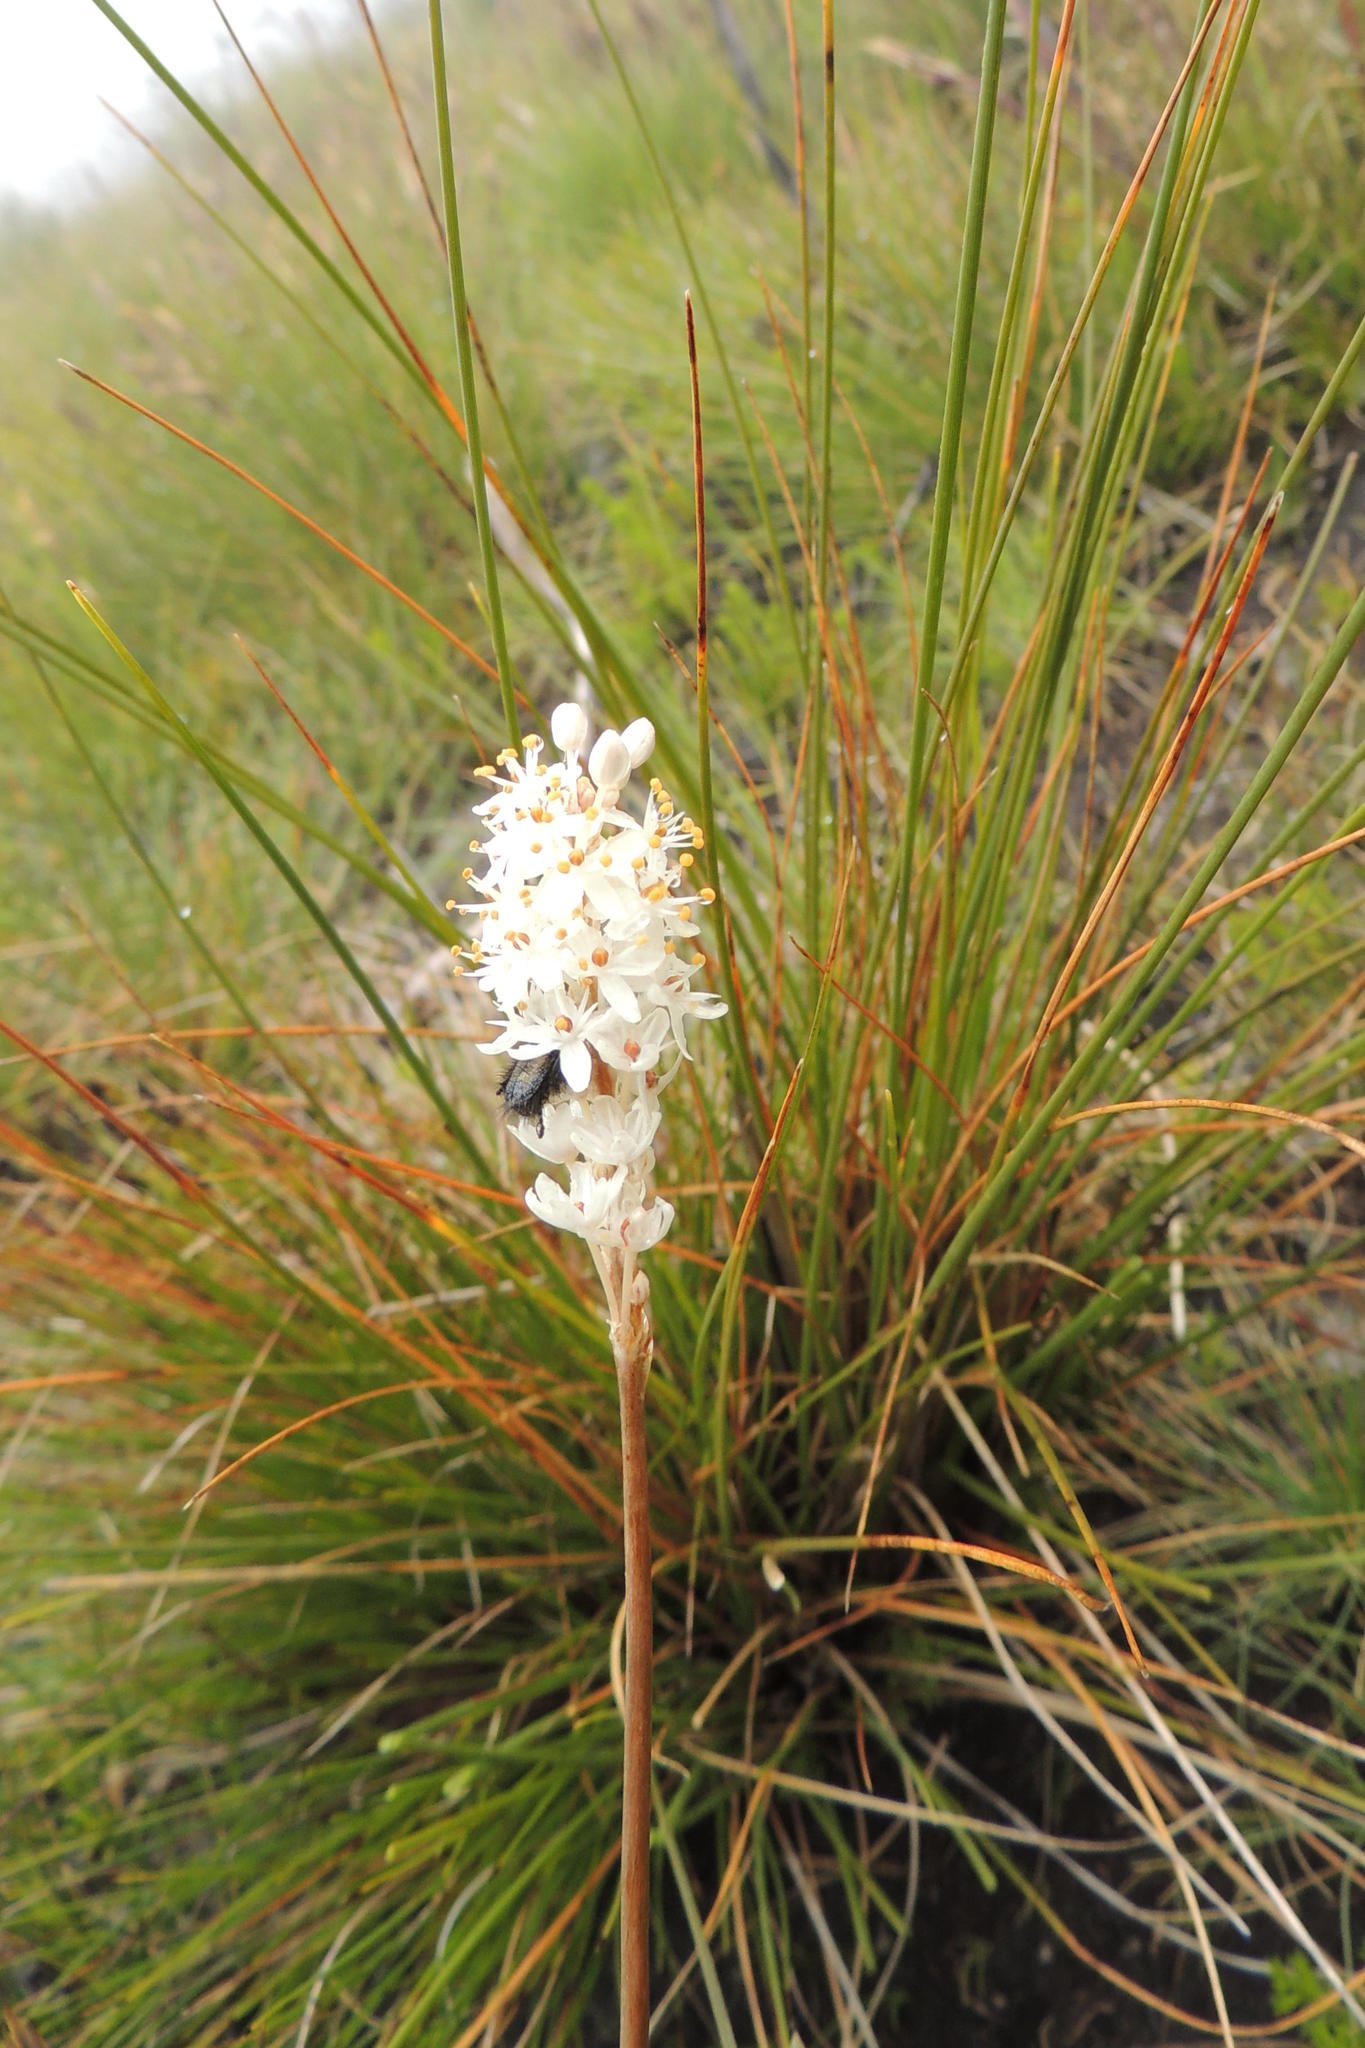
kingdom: Plantae
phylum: Tracheophyta
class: Liliopsida
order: Asparagales
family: Asphodelaceae
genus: Bulbinella
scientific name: Bulbinella trinervis
